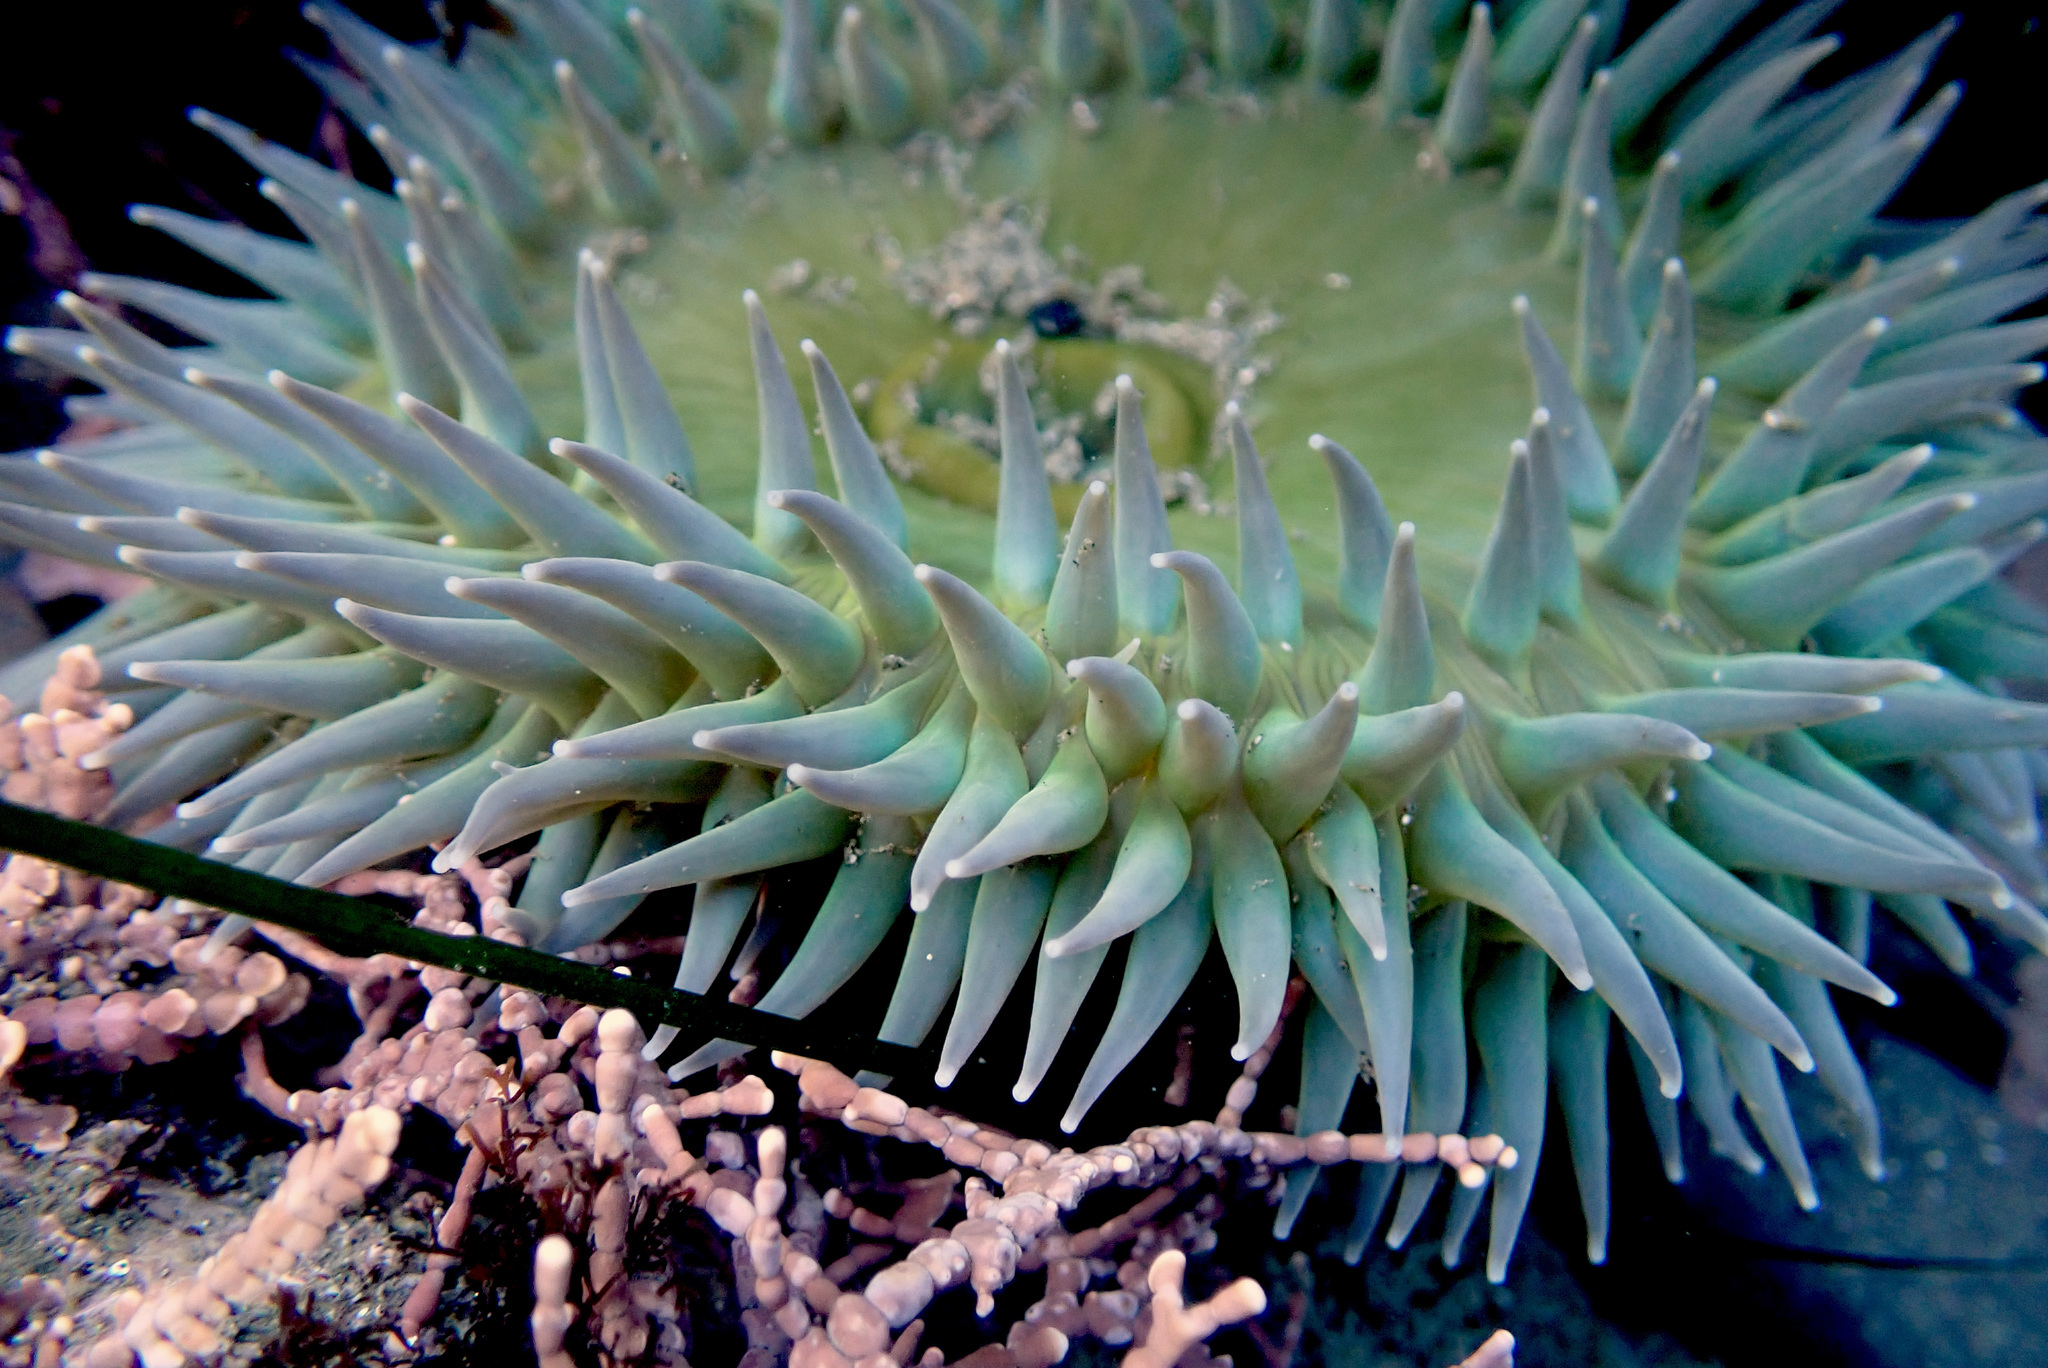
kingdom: Animalia
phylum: Cnidaria
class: Anthozoa
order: Actiniaria
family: Actiniidae
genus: Anthopleura
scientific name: Anthopleura xanthogrammica
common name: Giant green anemone
